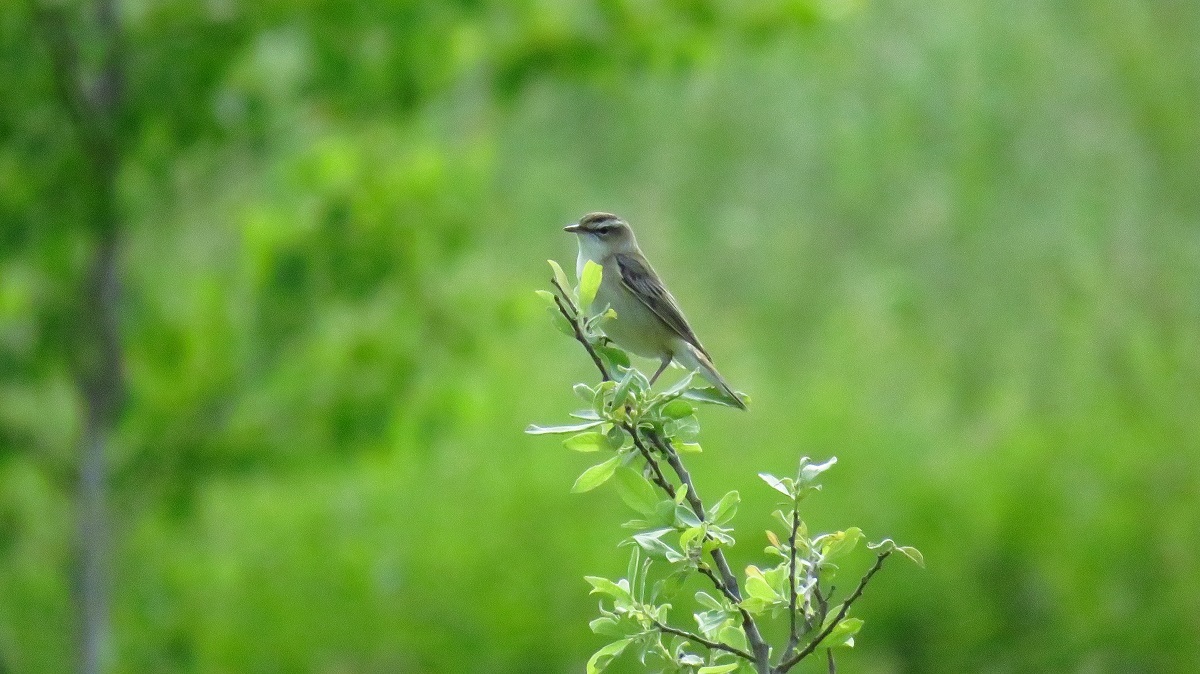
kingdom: Animalia
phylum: Chordata
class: Aves
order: Passeriformes
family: Acrocephalidae
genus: Acrocephalus
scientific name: Acrocephalus schoenobaenus
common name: Sedge warbler
